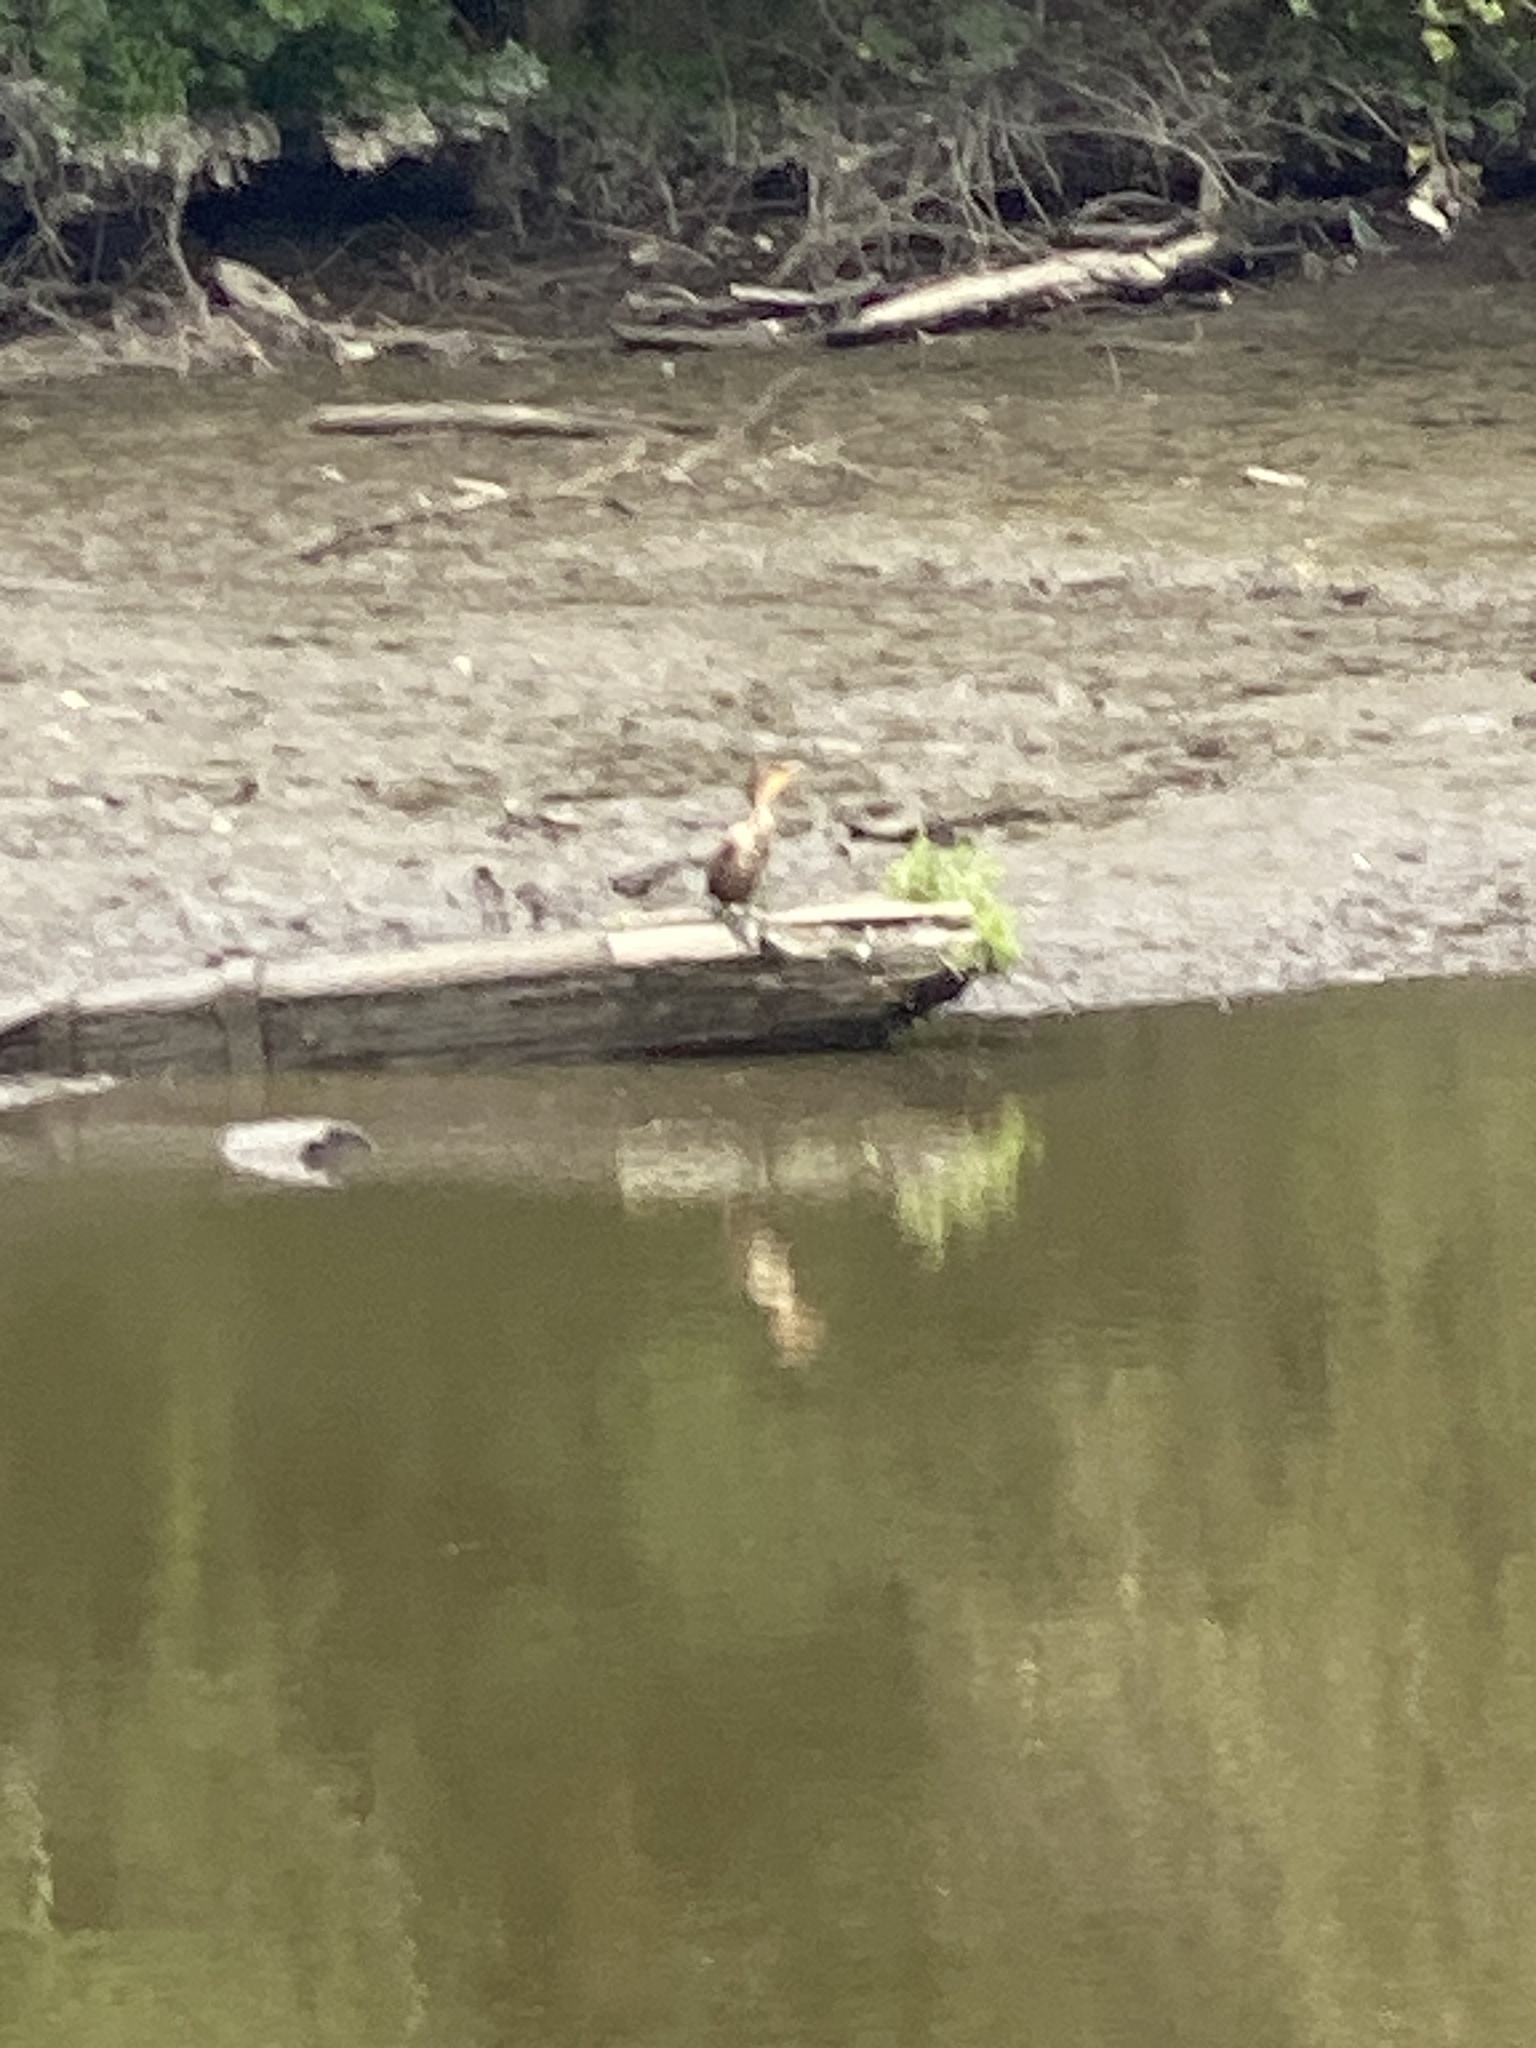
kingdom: Animalia
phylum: Chordata
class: Aves
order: Suliformes
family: Phalacrocoracidae
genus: Phalacrocorax
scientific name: Phalacrocorax auritus
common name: Double-crested cormorant
